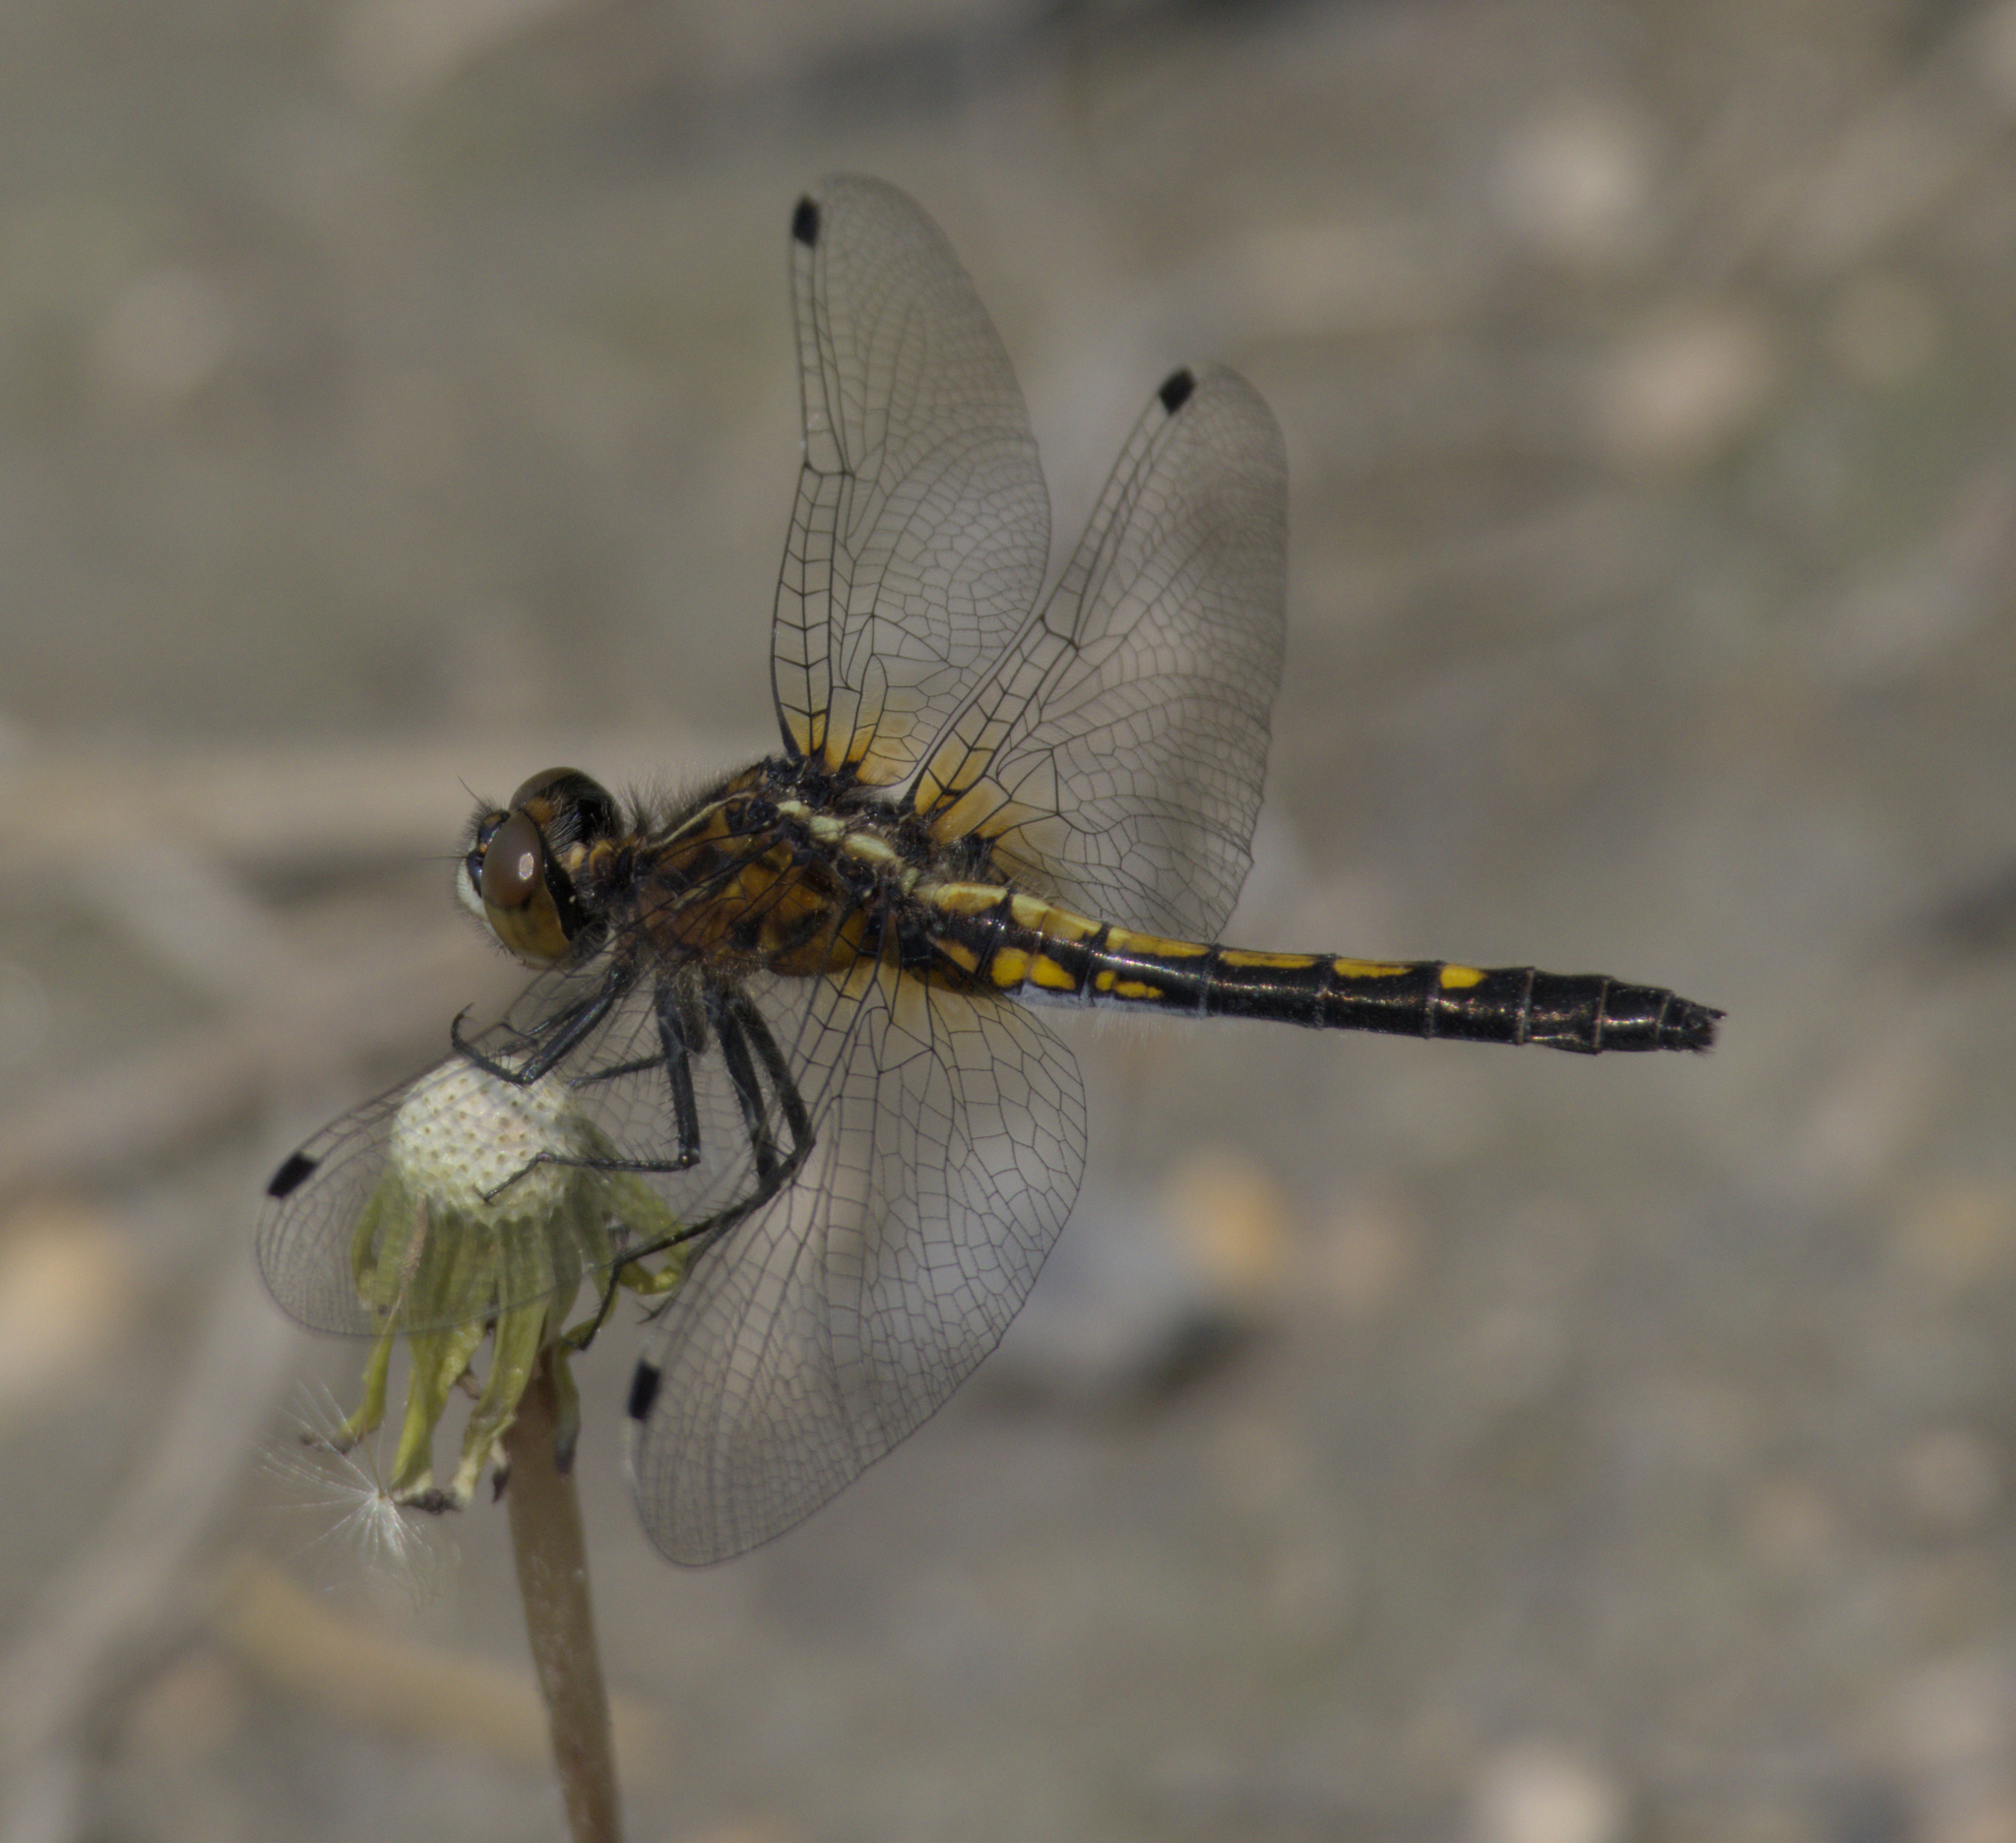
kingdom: Animalia
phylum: Arthropoda
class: Insecta
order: Odonata
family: Libellulidae
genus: Leucorrhinia
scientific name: Leucorrhinia intacta
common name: Dot-tailed whiteface
